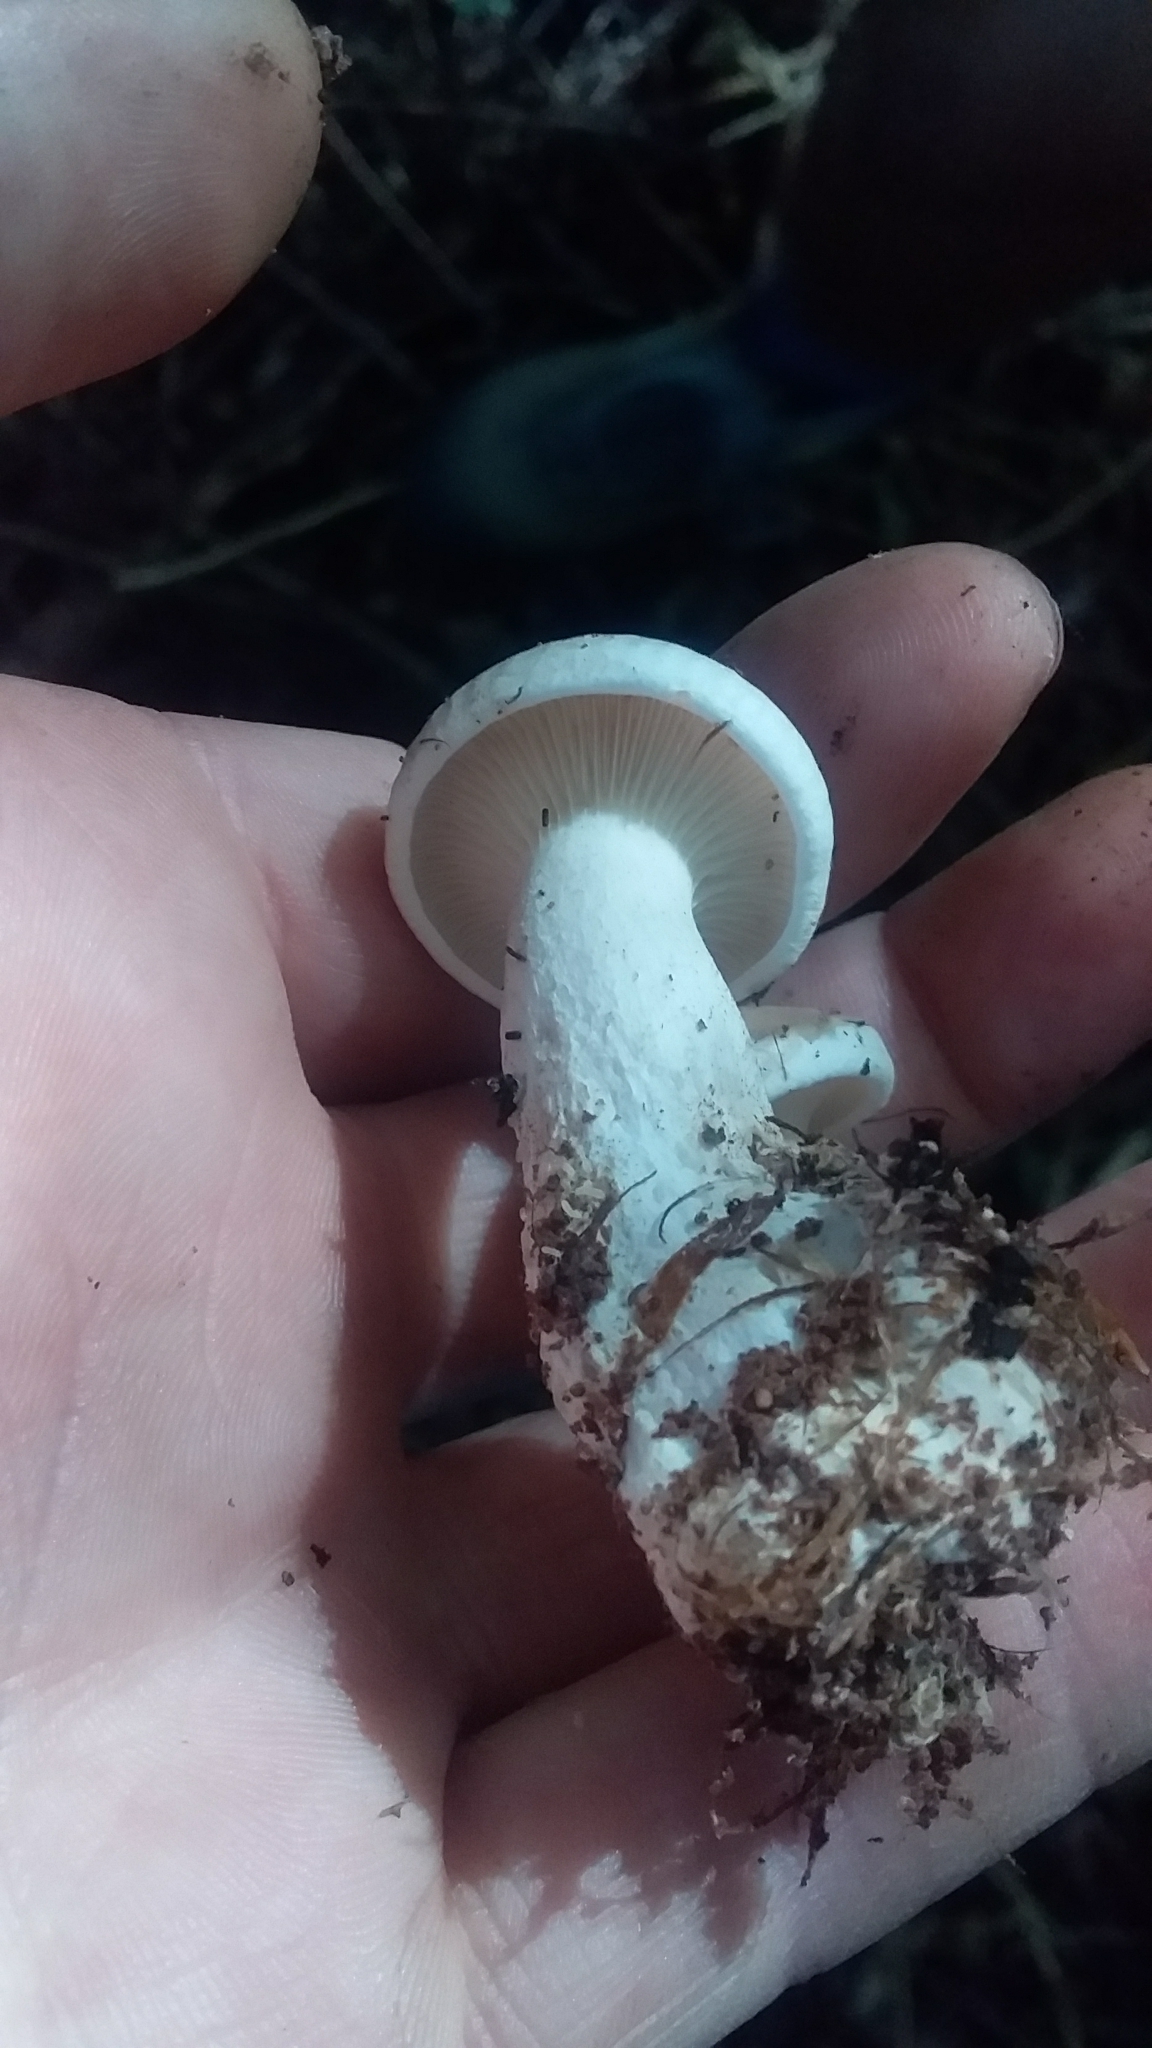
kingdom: Fungi
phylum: Basidiomycota
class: Agaricomycetes
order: Agaricales
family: Tricholomataceae
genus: Clitocybe
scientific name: Clitocybe nebularis
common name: Clouded agaric
